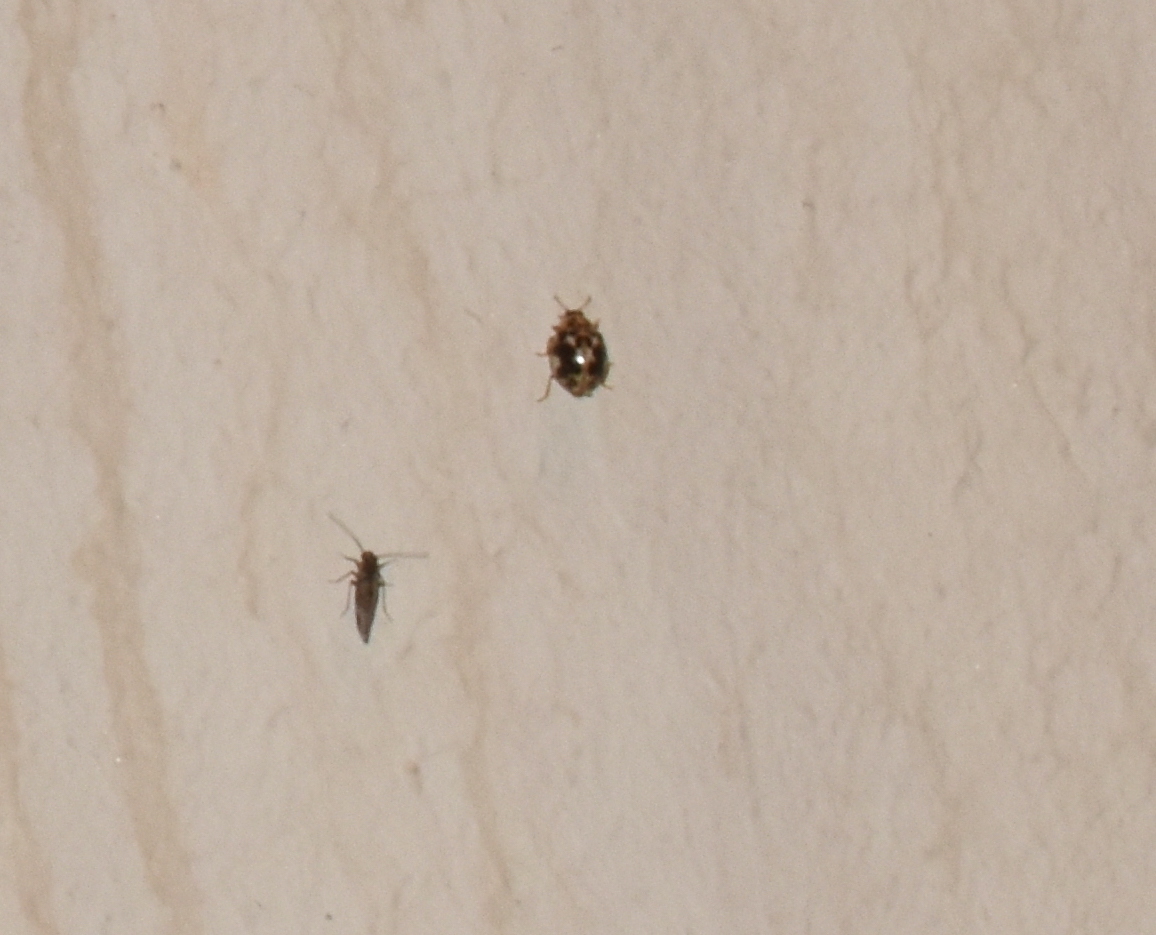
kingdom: Animalia
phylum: Arthropoda
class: Insecta
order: Coleoptera
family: Coccinellidae
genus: Psyllobora
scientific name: Psyllobora vigintimaculata
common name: Ladybird beetle
